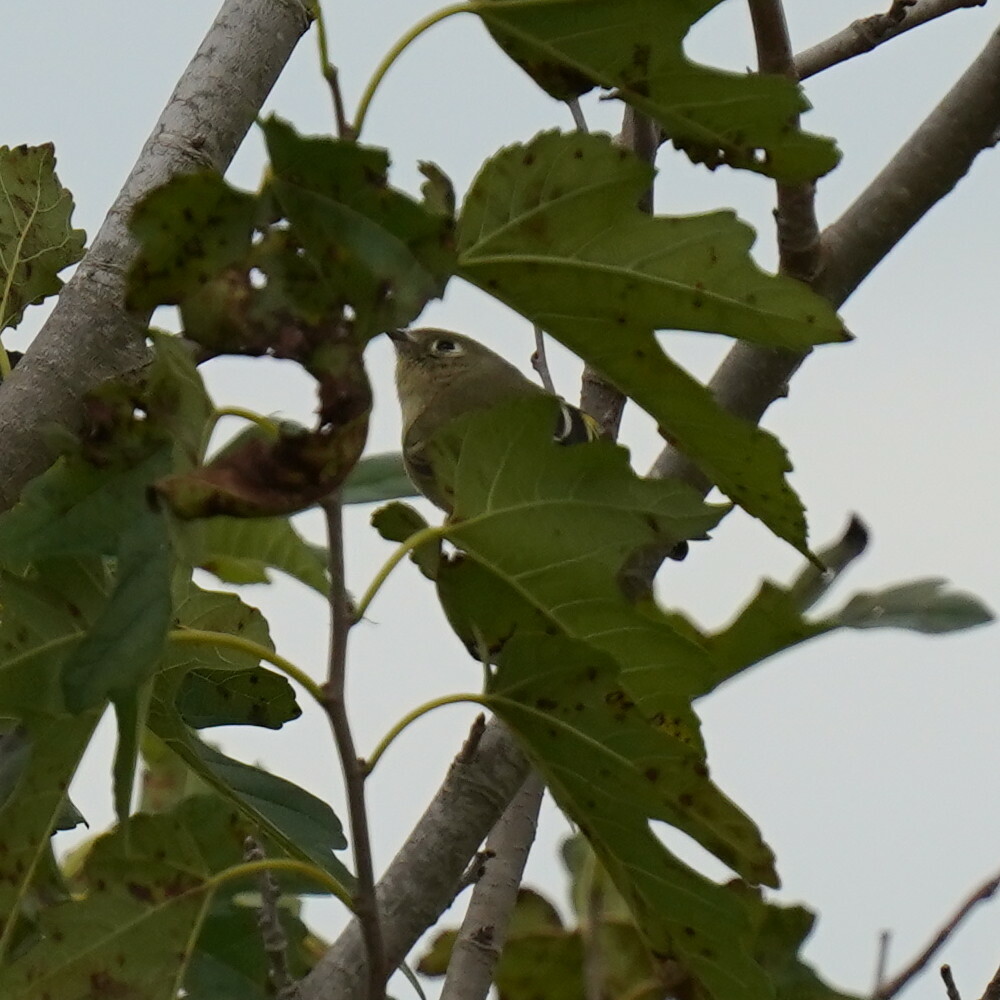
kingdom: Animalia
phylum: Chordata
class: Aves
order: Passeriformes
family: Regulidae
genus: Regulus
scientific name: Regulus calendula
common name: Ruby-crowned kinglet
